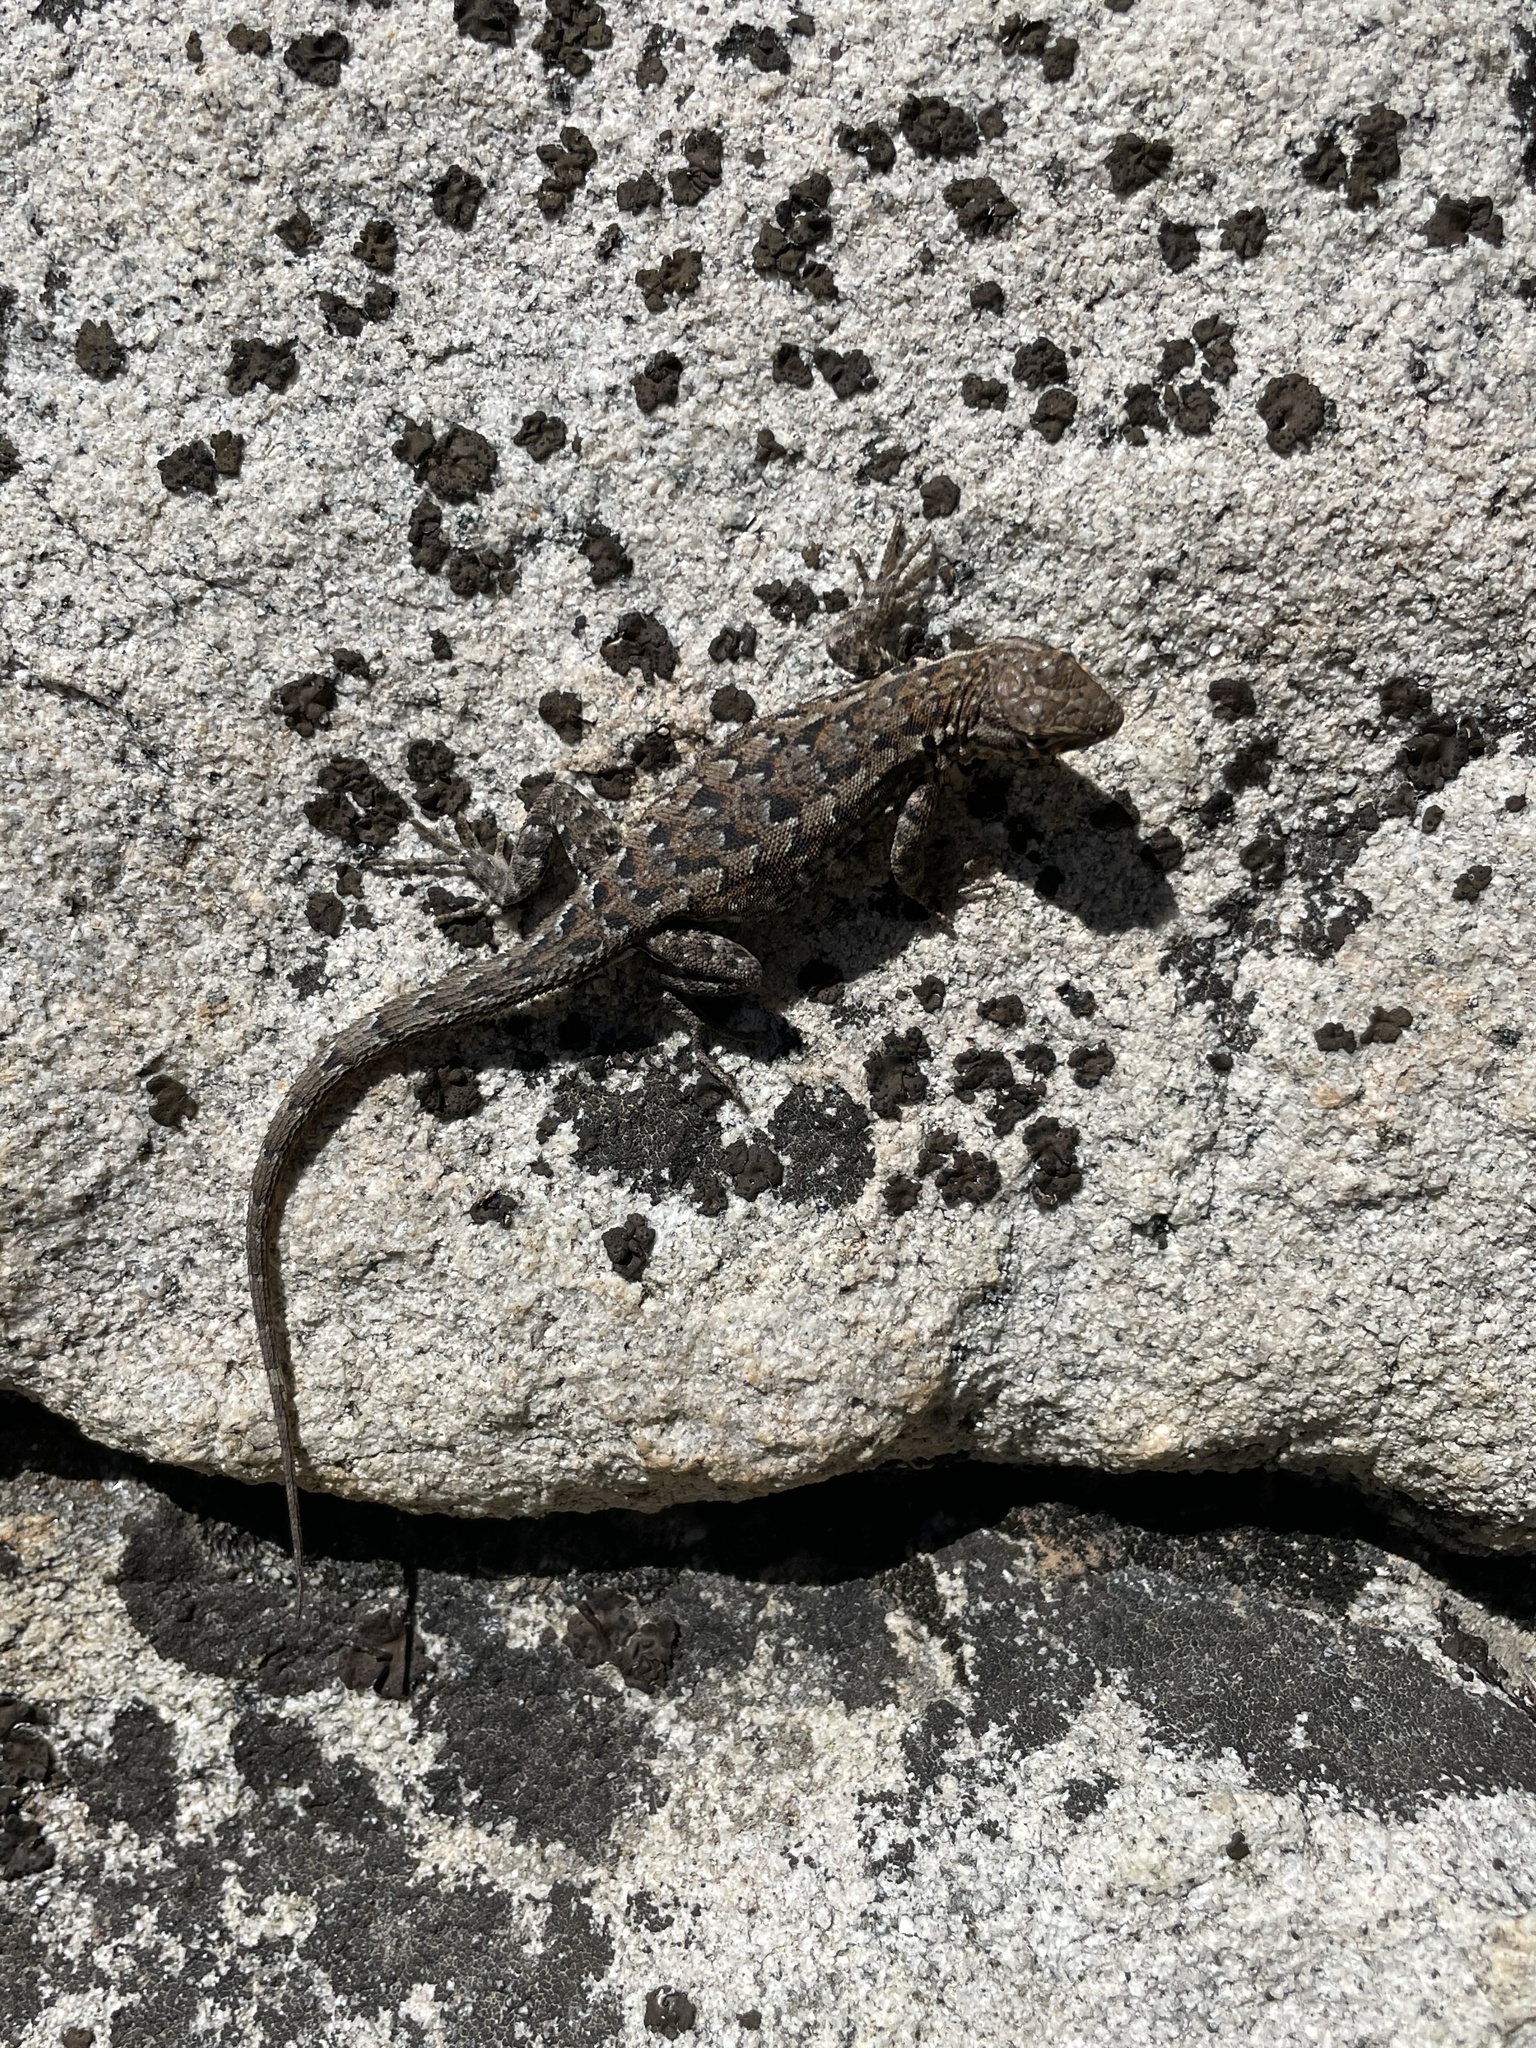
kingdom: Animalia
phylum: Chordata
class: Squamata
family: Phrynosomatidae
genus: Uta
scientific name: Uta stansburiana
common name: Side-blotched lizard
